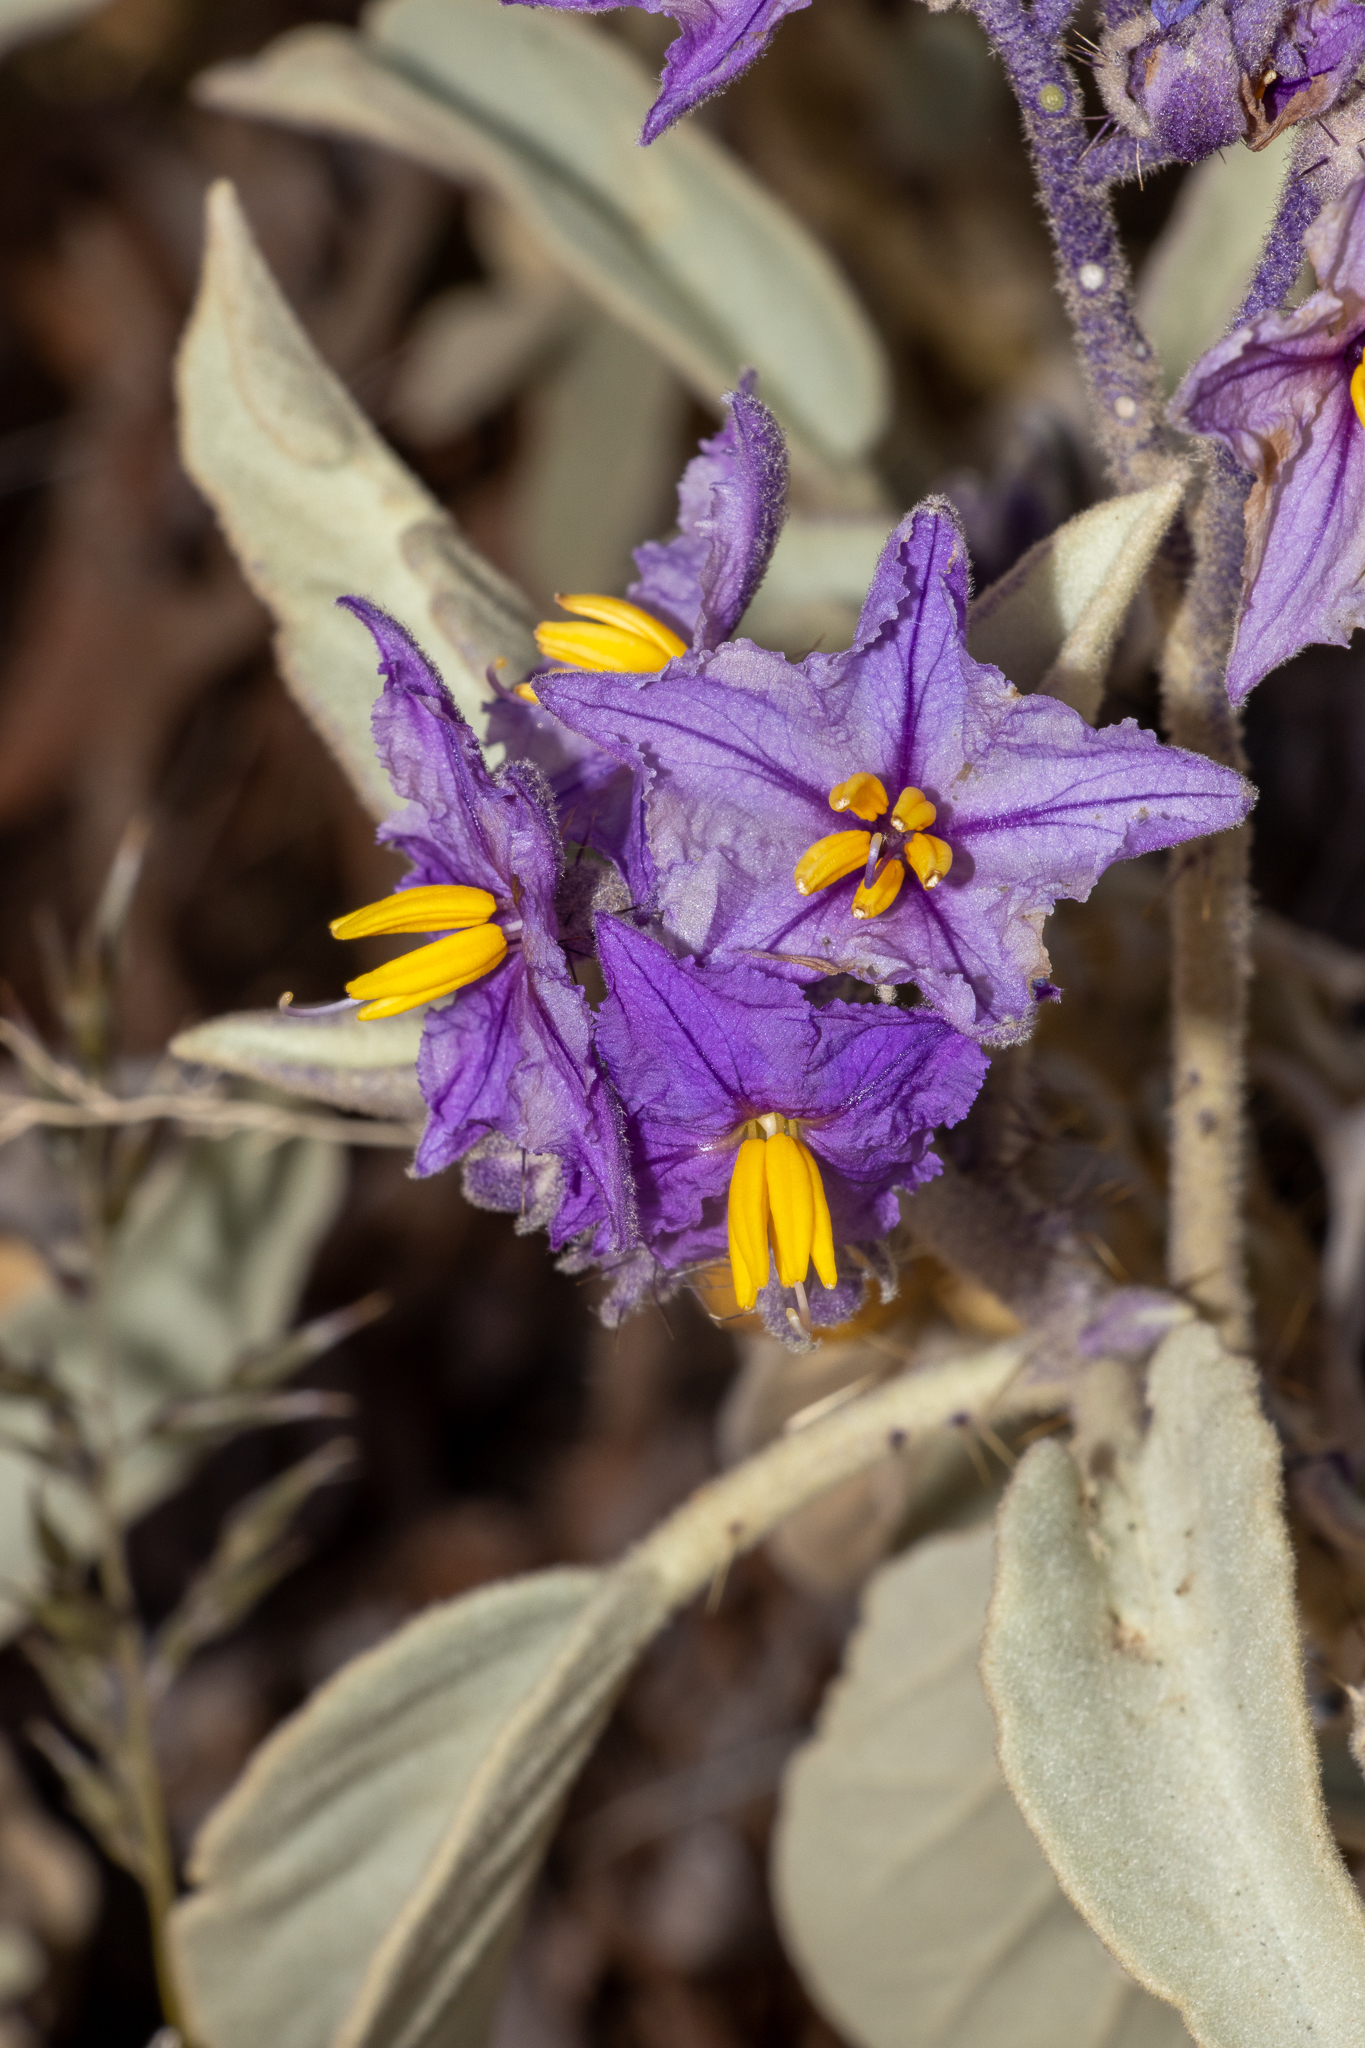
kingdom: Plantae
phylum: Tracheophyta
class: Magnoliopsida
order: Solanales
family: Solanaceae
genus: Solanum
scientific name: Solanum quadriloculatum
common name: Wild tomato
